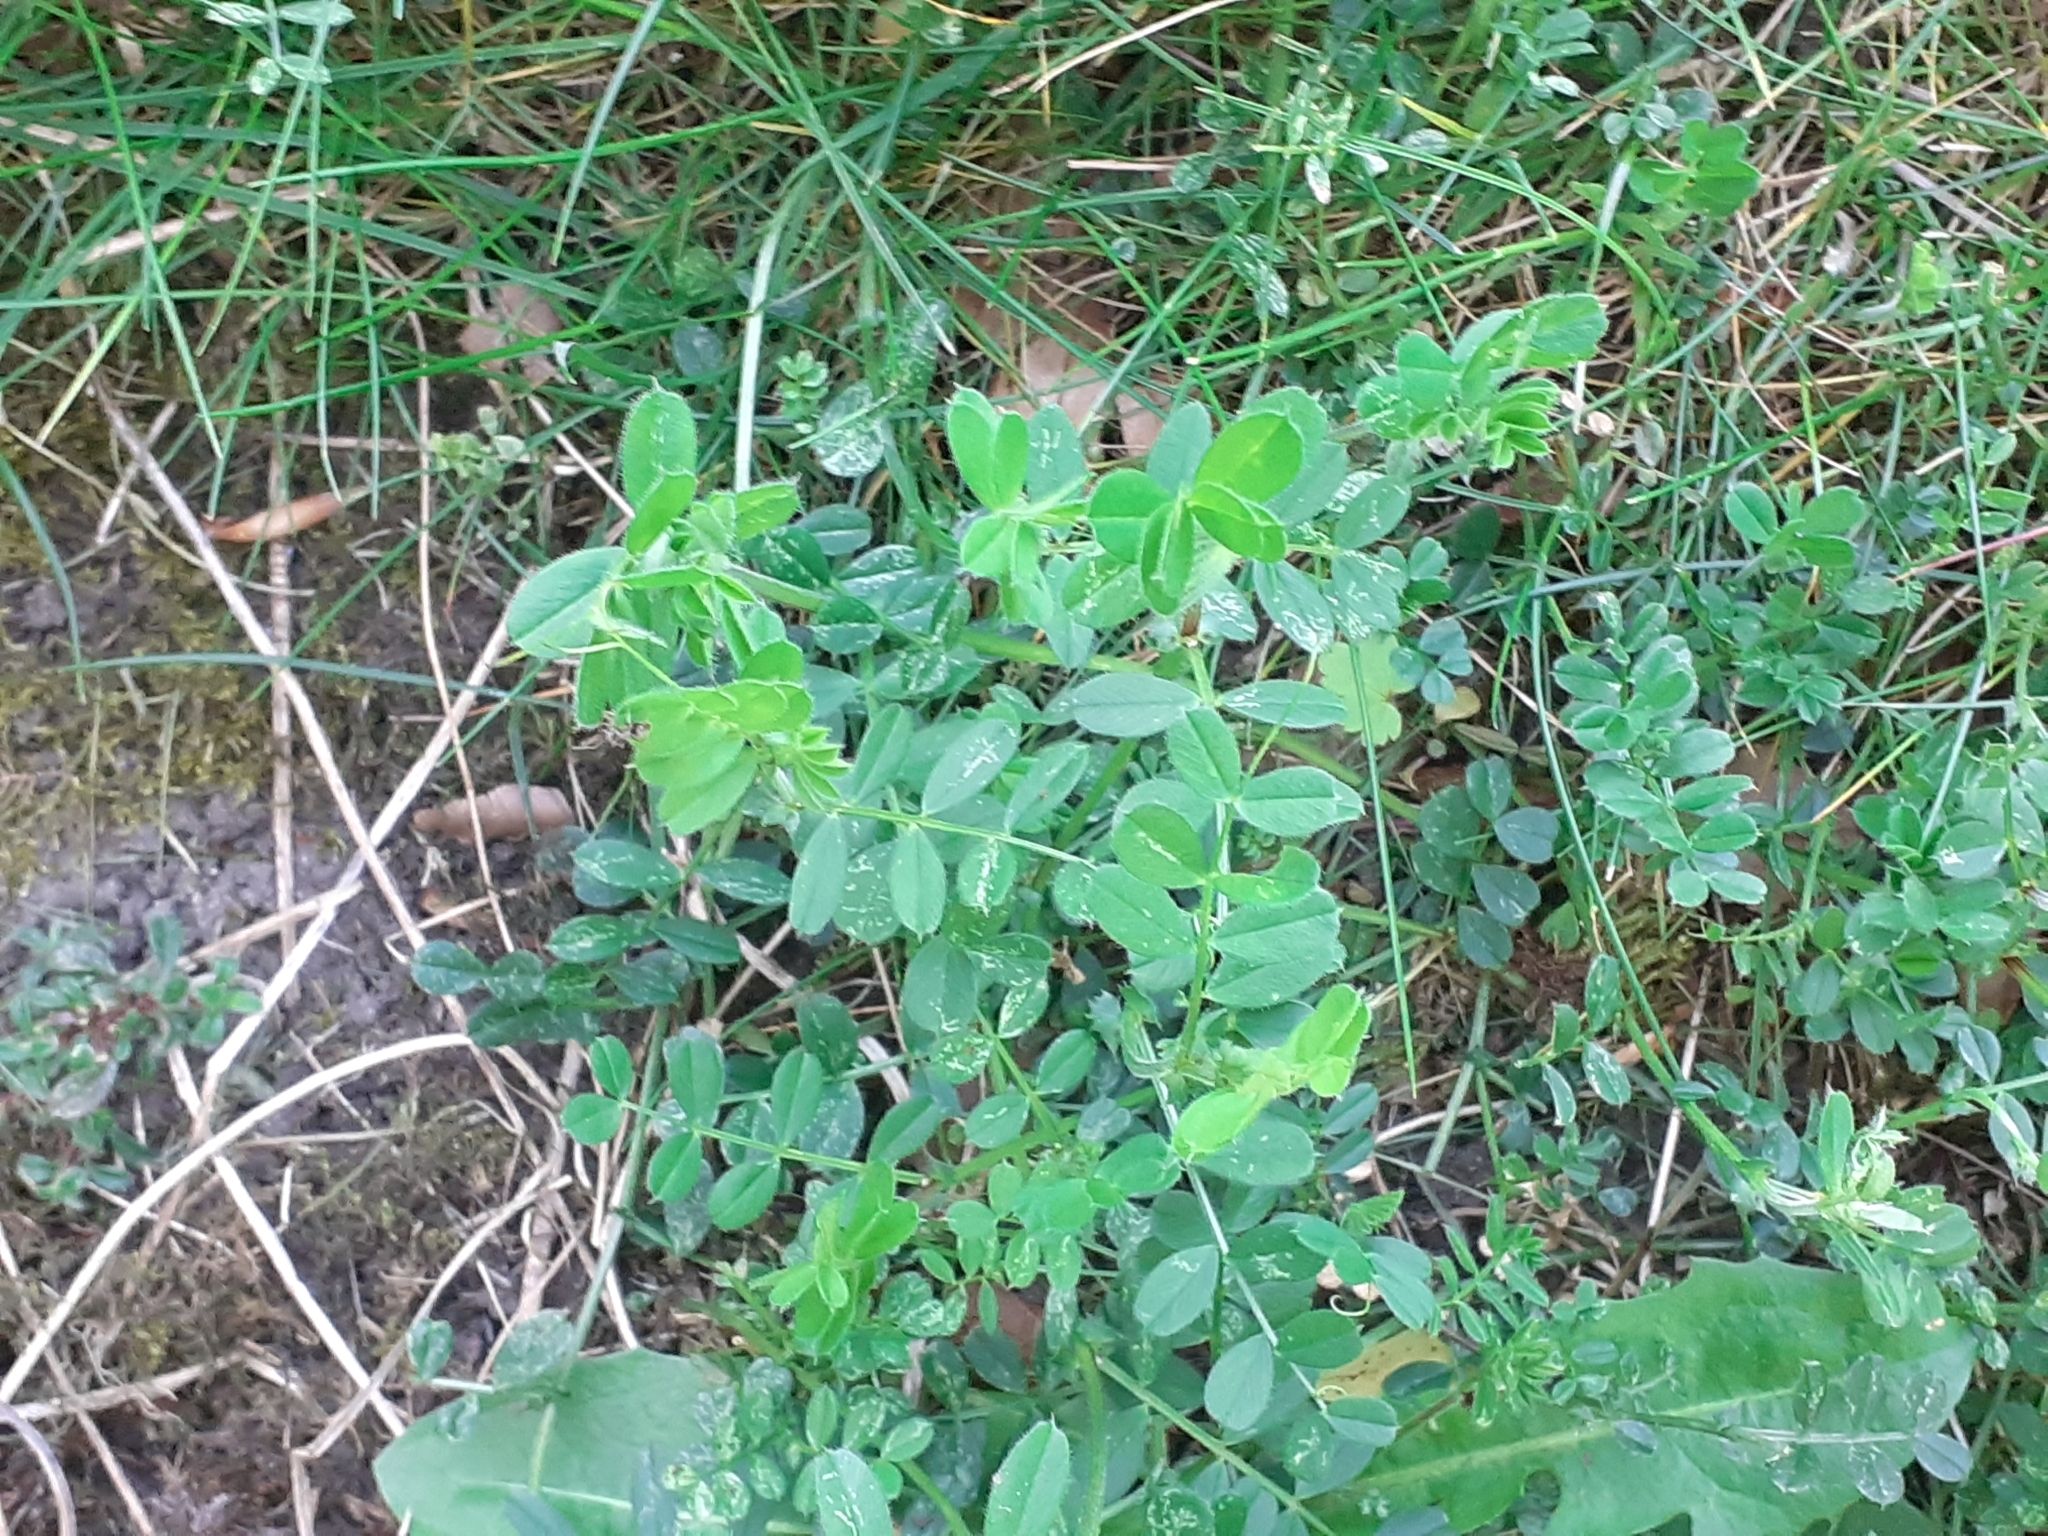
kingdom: Plantae
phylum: Tracheophyta
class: Magnoliopsida
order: Fabales
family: Fabaceae
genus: Vicia
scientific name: Vicia sativa
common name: Garden vetch
